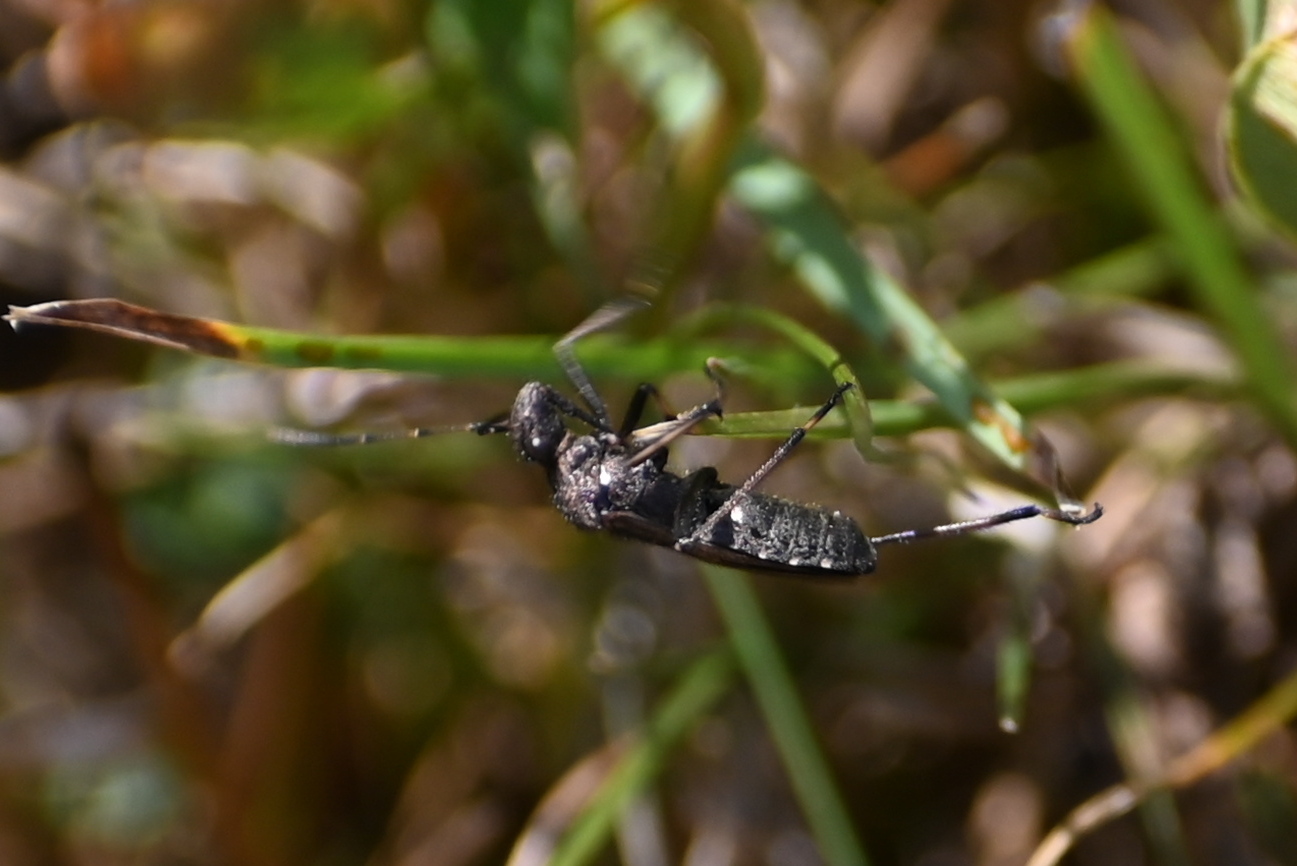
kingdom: Animalia
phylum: Arthropoda
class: Insecta
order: Hemiptera
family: Alydidae
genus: Alydus
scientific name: Alydus calcaratus
